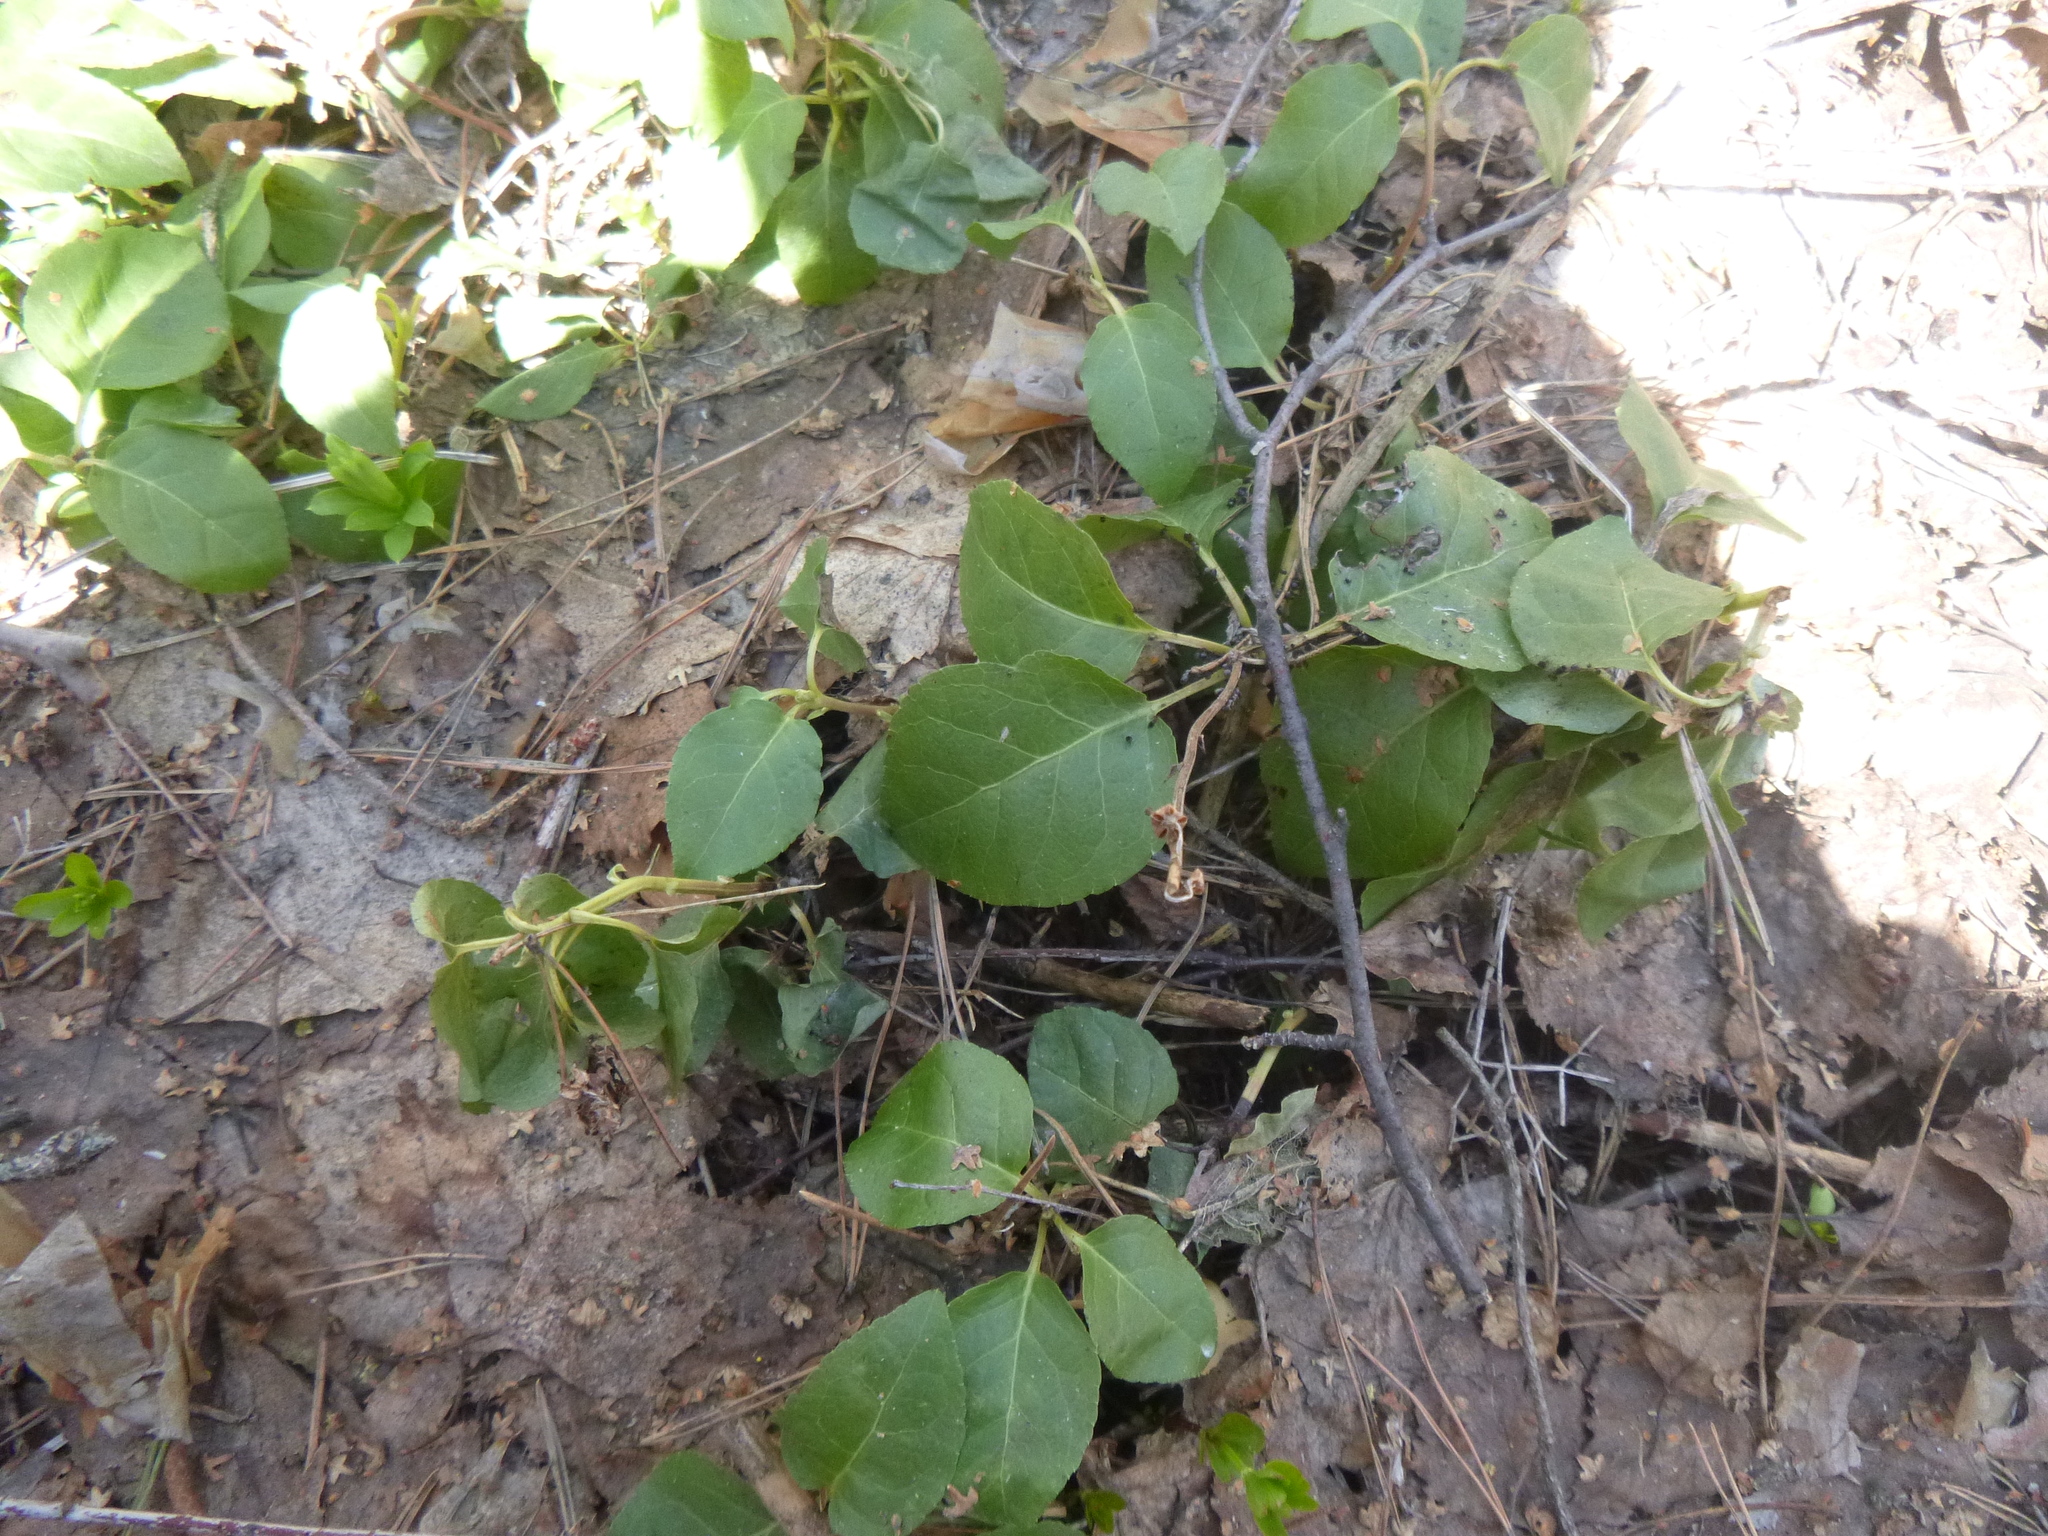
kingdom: Plantae
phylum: Tracheophyta
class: Magnoliopsida
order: Ericales
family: Ericaceae
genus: Orthilia
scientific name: Orthilia secunda
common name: One-sided orthilia
